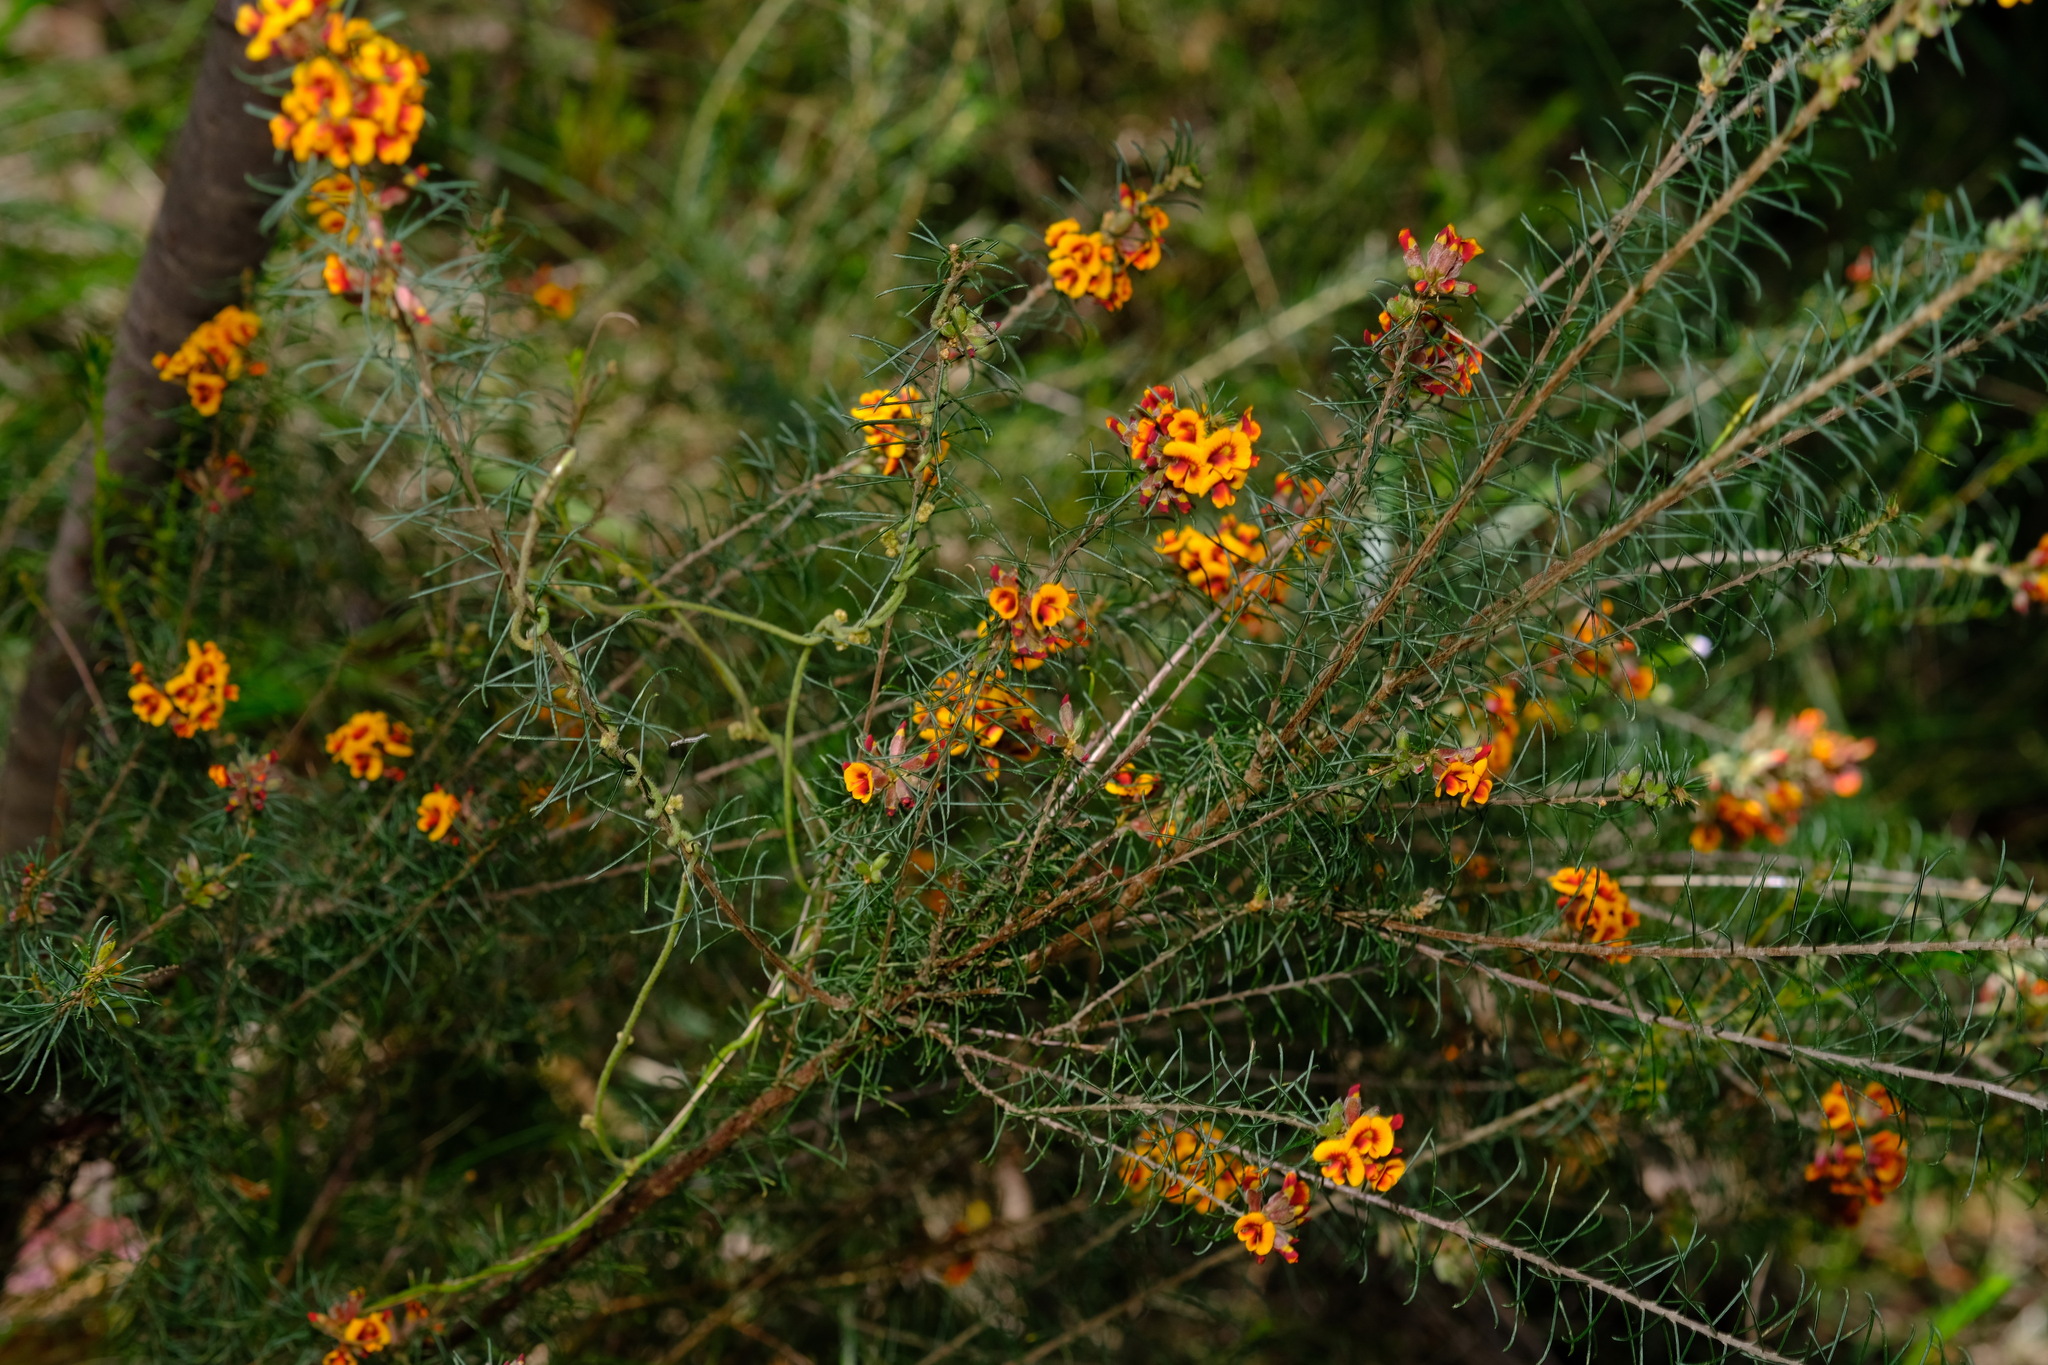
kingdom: Plantae
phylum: Tracheophyta
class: Magnoliopsida
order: Fabales
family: Fabaceae
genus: Dillwynia
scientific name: Dillwynia cinerascens
